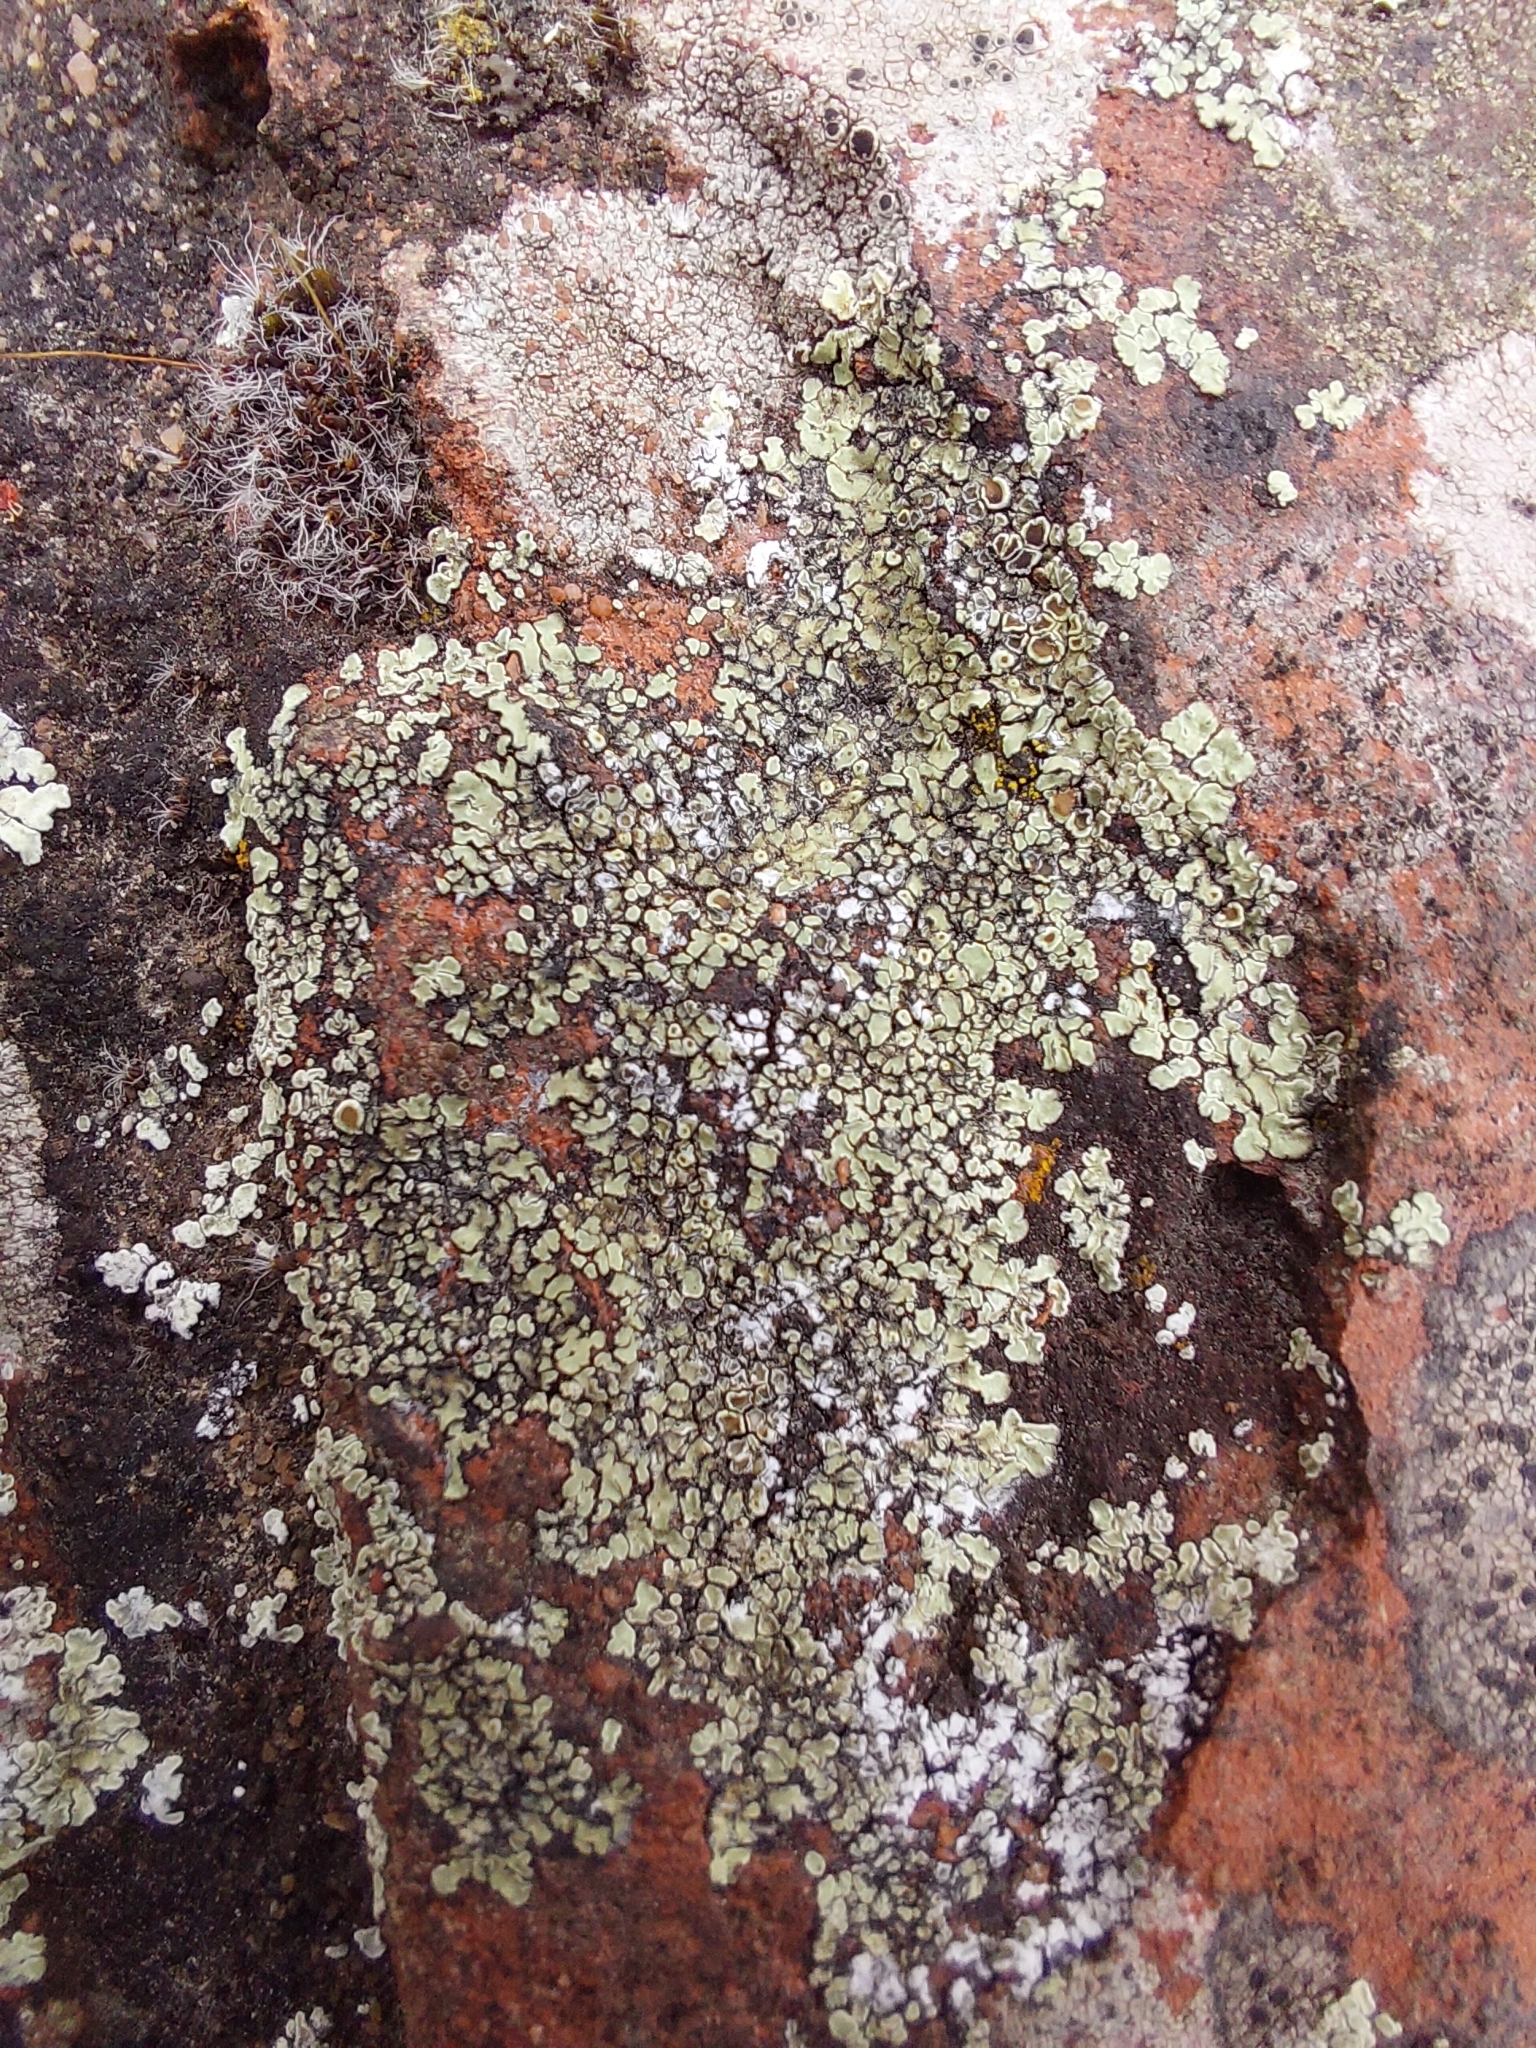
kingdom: Fungi
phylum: Ascomycota
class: Lecanoromycetes
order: Lecanorales
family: Lecanoraceae
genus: Protoparmeliopsis
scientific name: Protoparmeliopsis muralis
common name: Stonewall rim lichen
